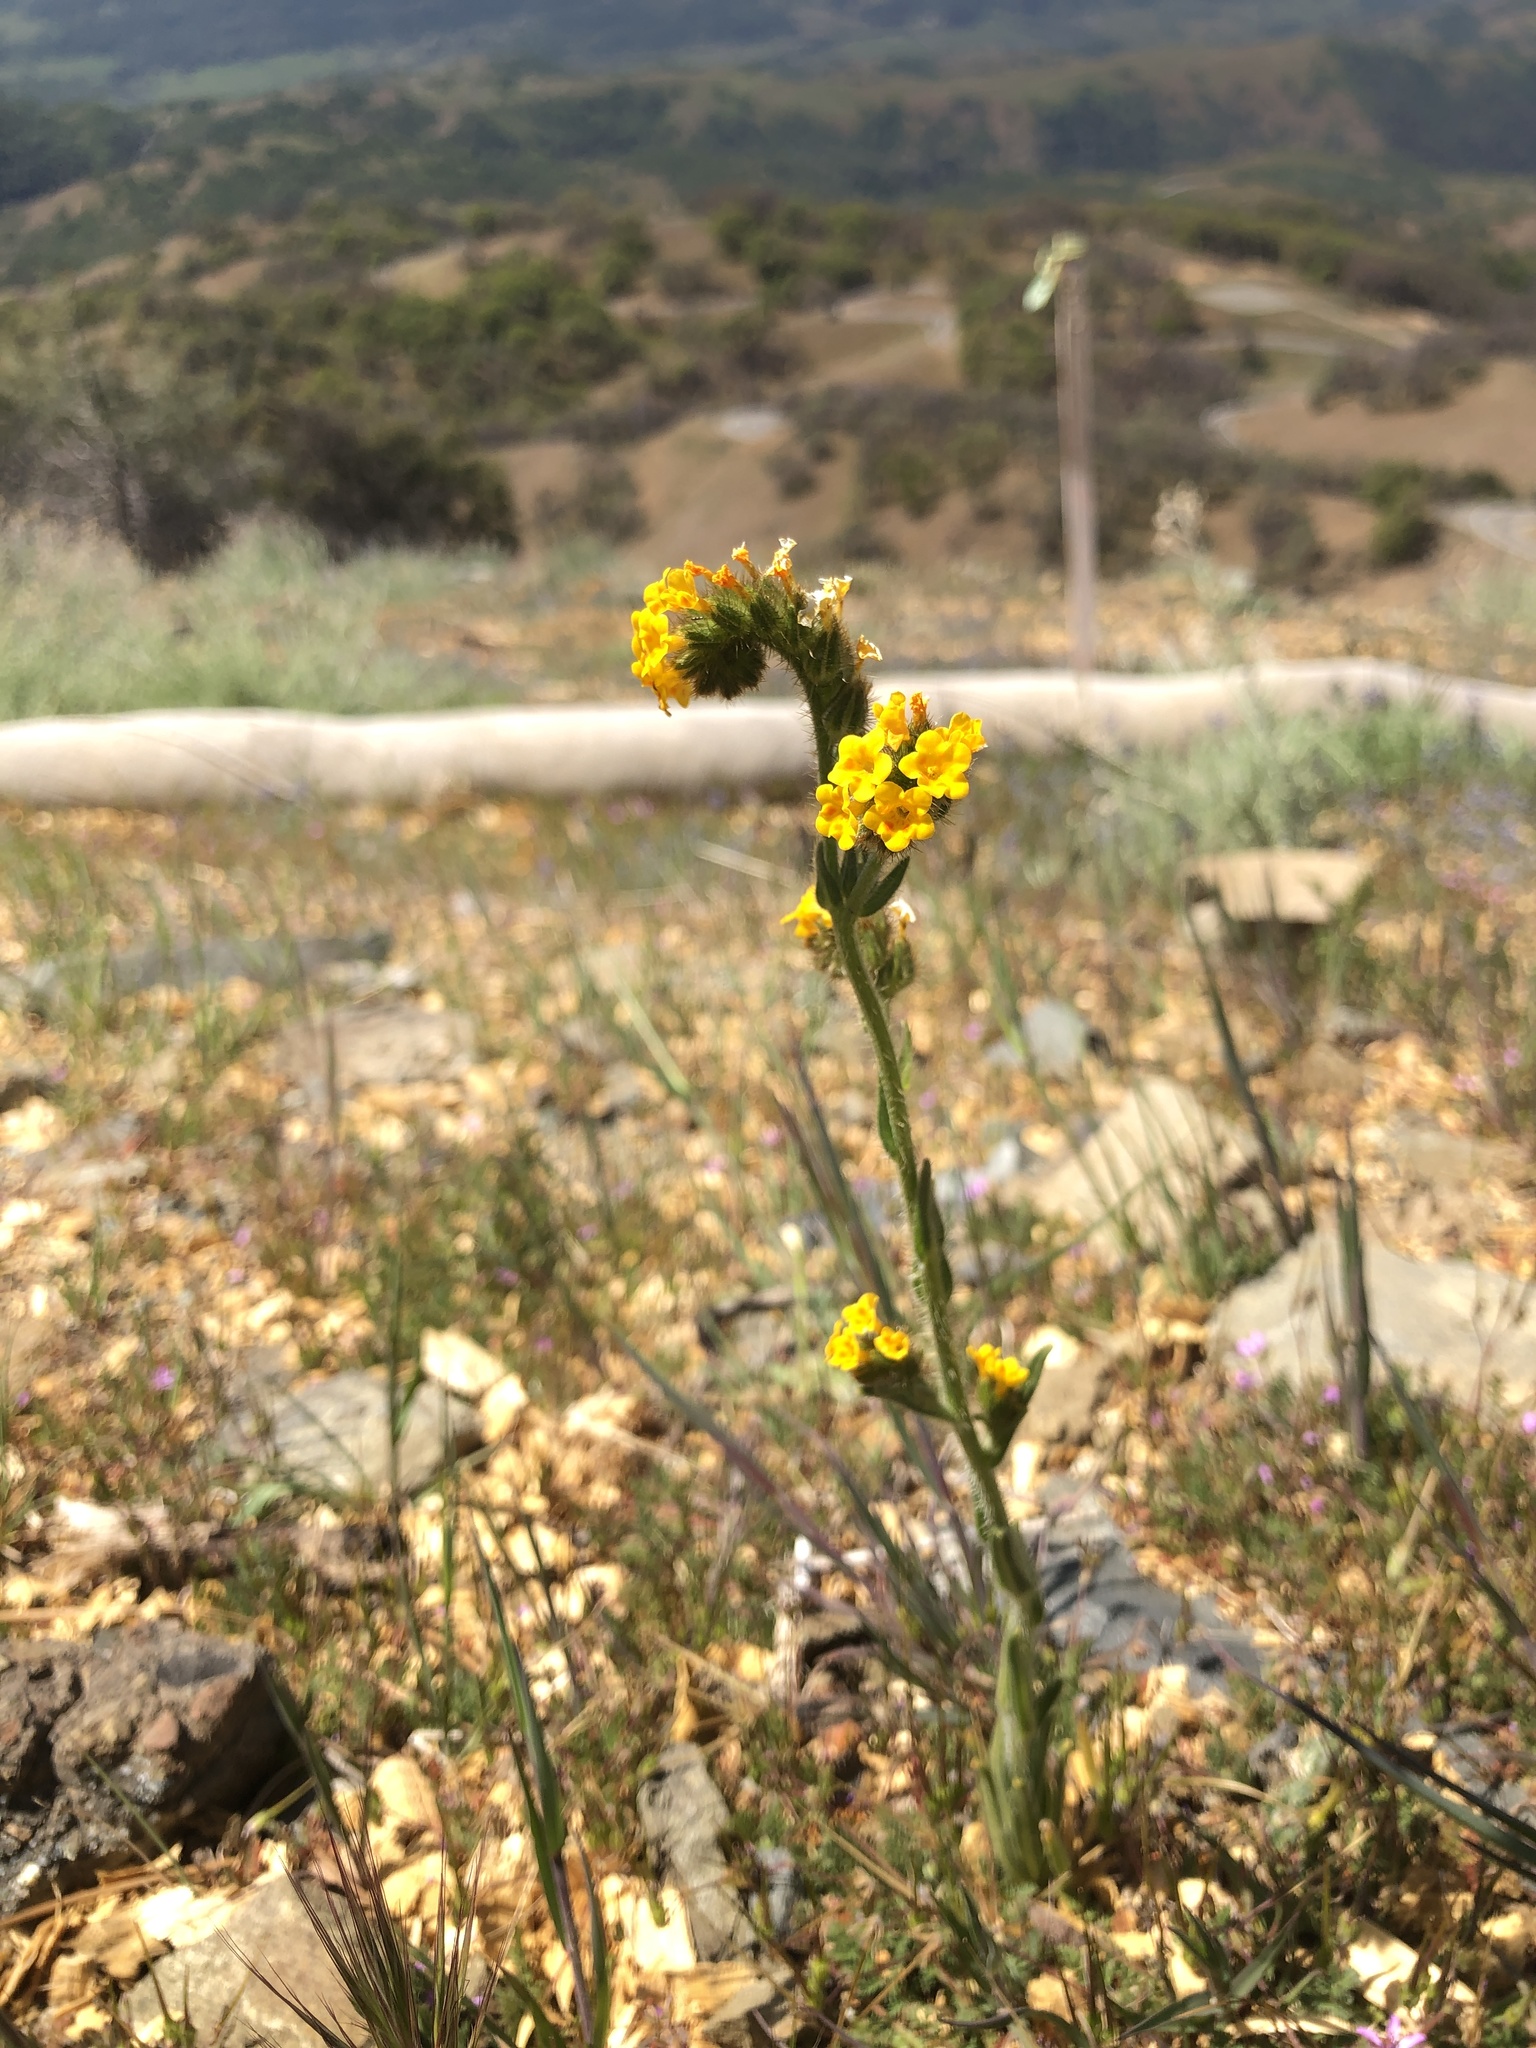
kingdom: Plantae
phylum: Tracheophyta
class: Magnoliopsida
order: Boraginales
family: Boraginaceae
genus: Amsinckia
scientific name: Amsinckia menziesii
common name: Menzies' fiddleneck
